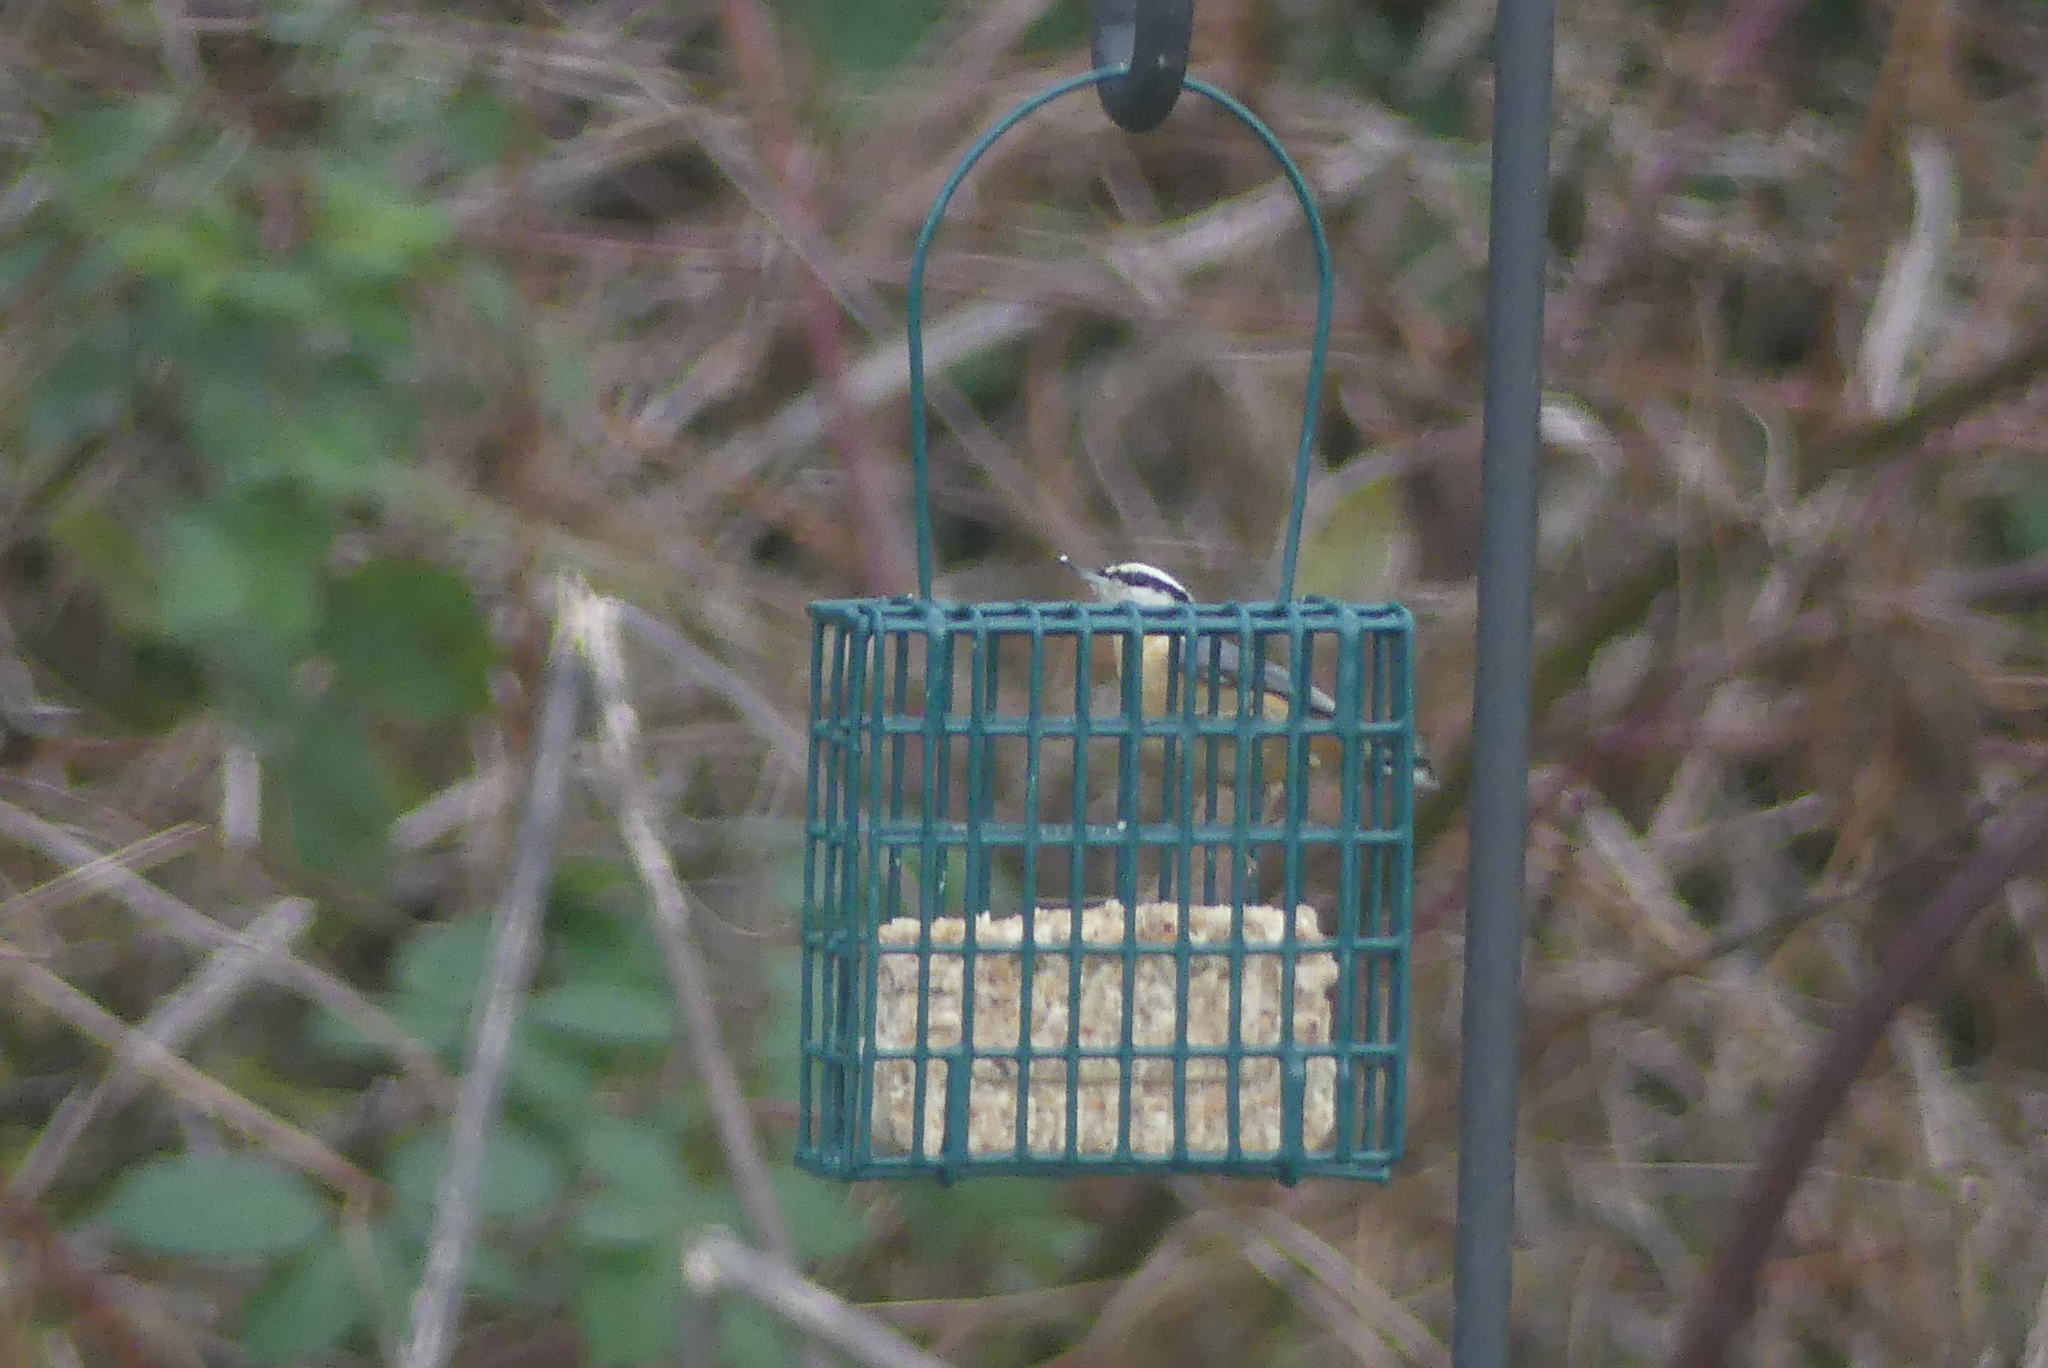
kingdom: Animalia
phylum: Chordata
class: Aves
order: Passeriformes
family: Sittidae
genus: Sitta
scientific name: Sitta canadensis
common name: Red-breasted nuthatch
